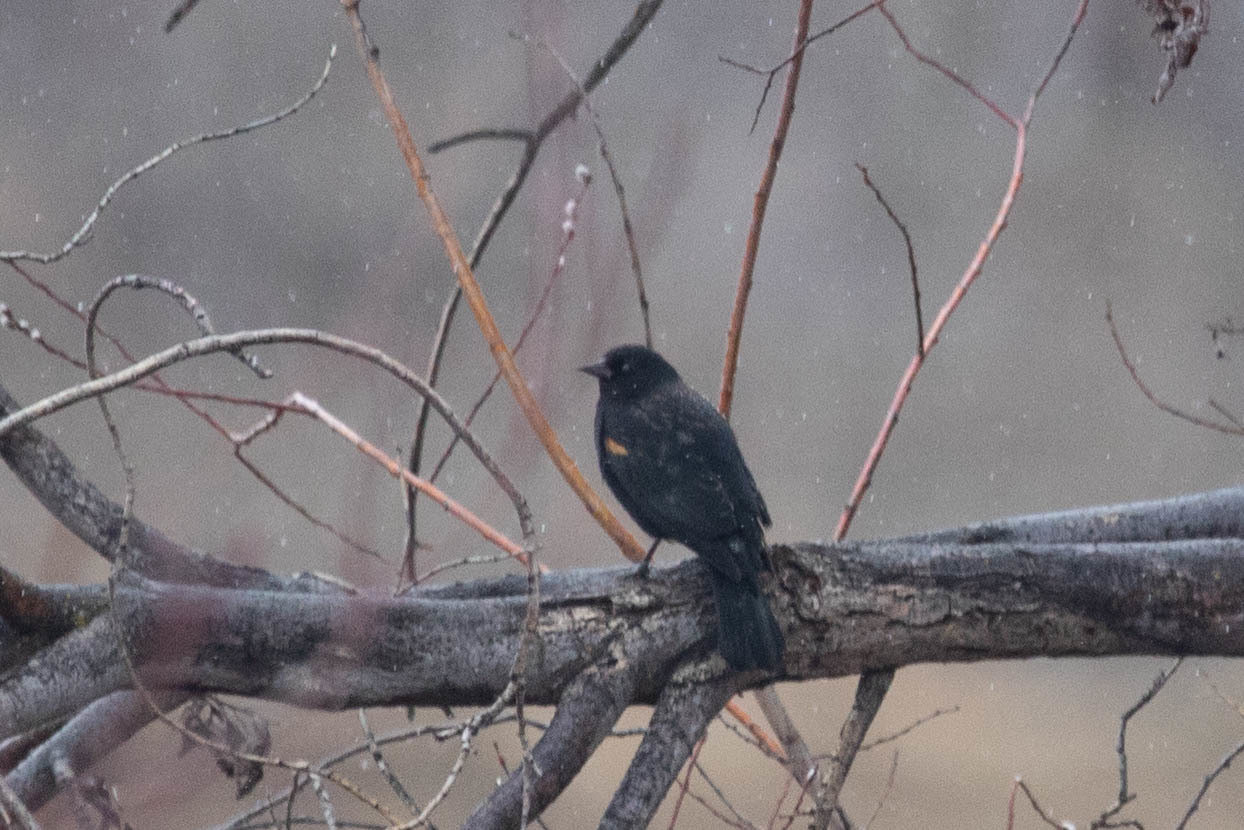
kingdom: Animalia
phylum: Chordata
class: Aves
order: Passeriformes
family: Icteridae
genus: Agelaius
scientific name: Agelaius phoeniceus
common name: Red-winged blackbird
